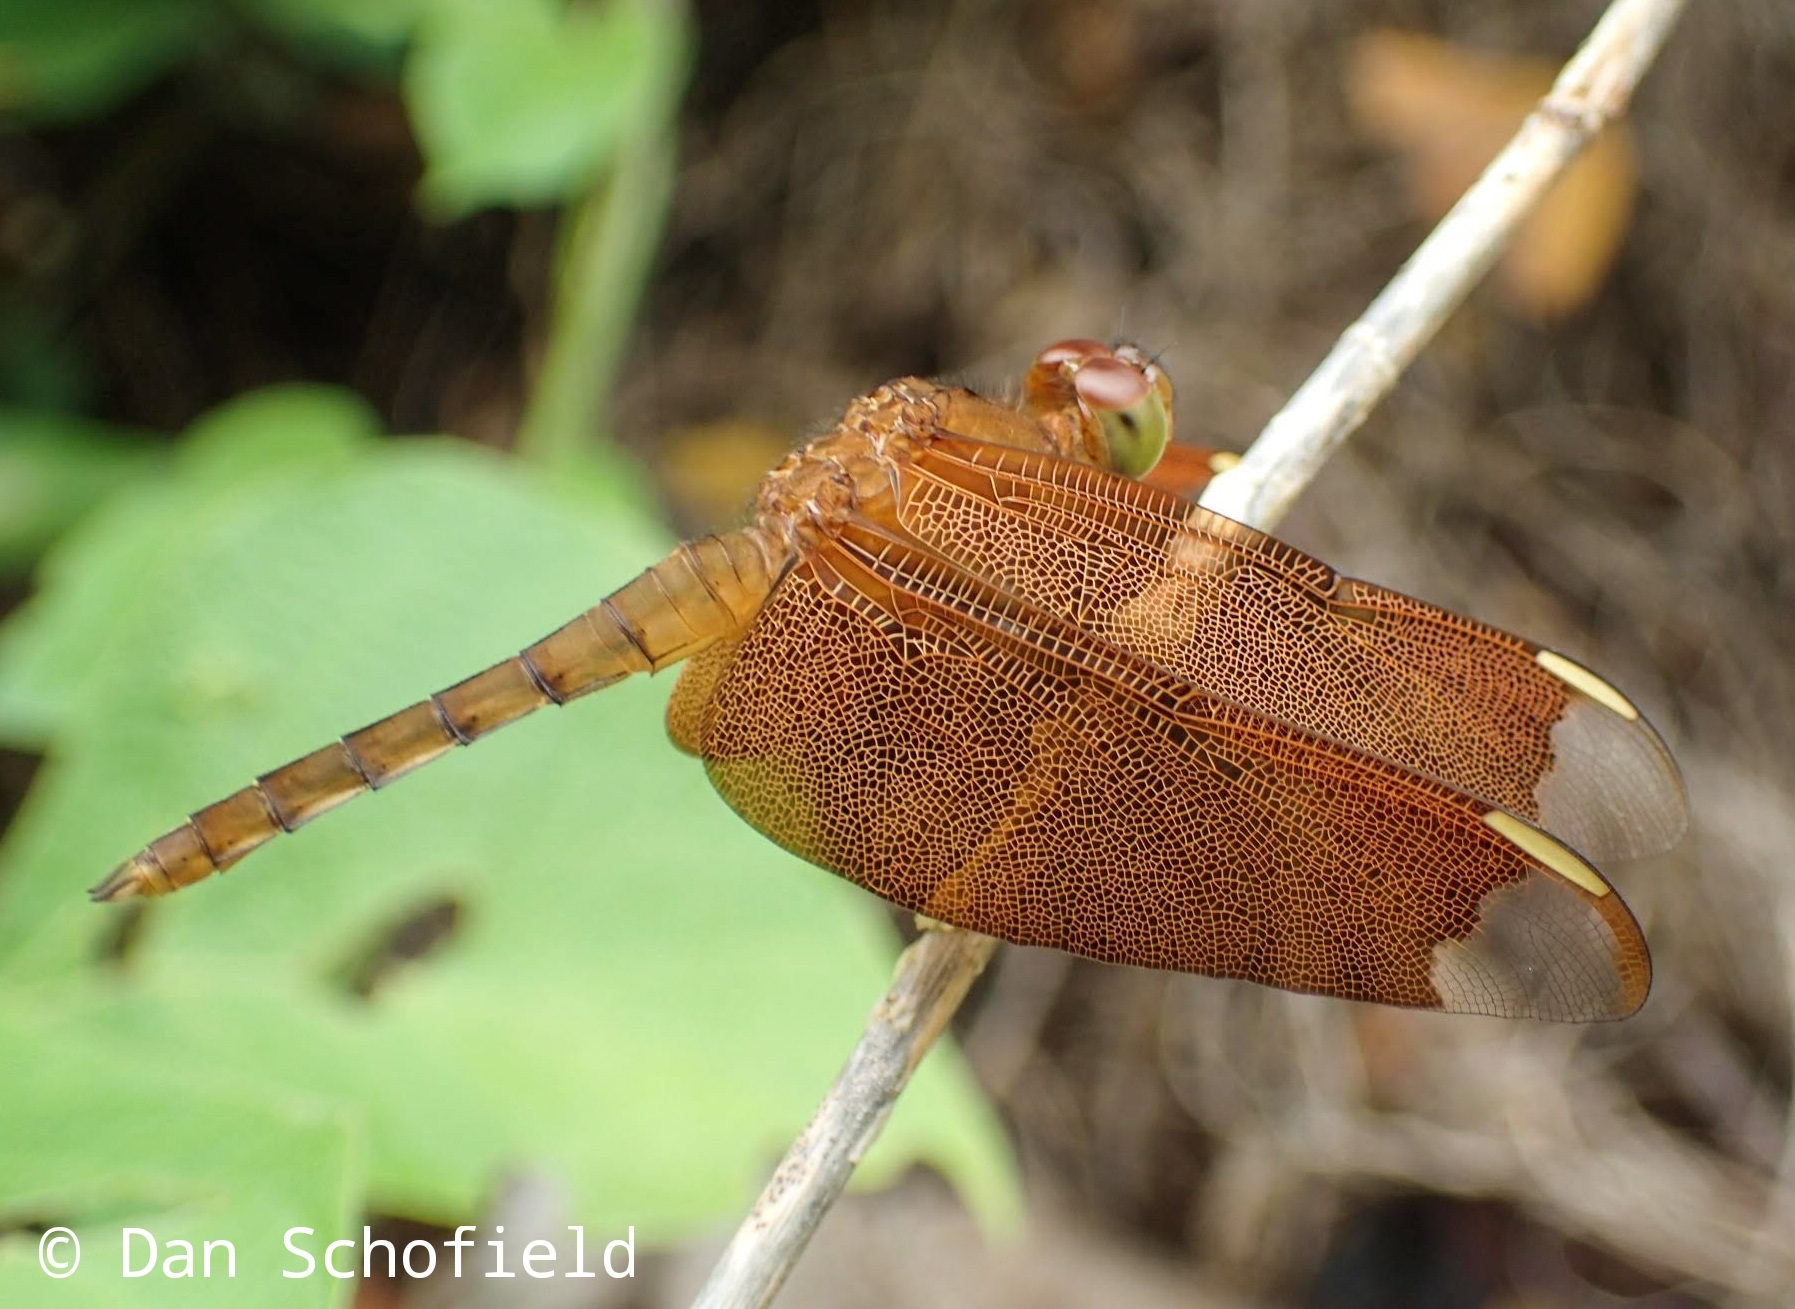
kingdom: Animalia
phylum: Arthropoda
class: Insecta
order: Odonata
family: Libellulidae
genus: Neurothemis
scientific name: Neurothemis fulvia
